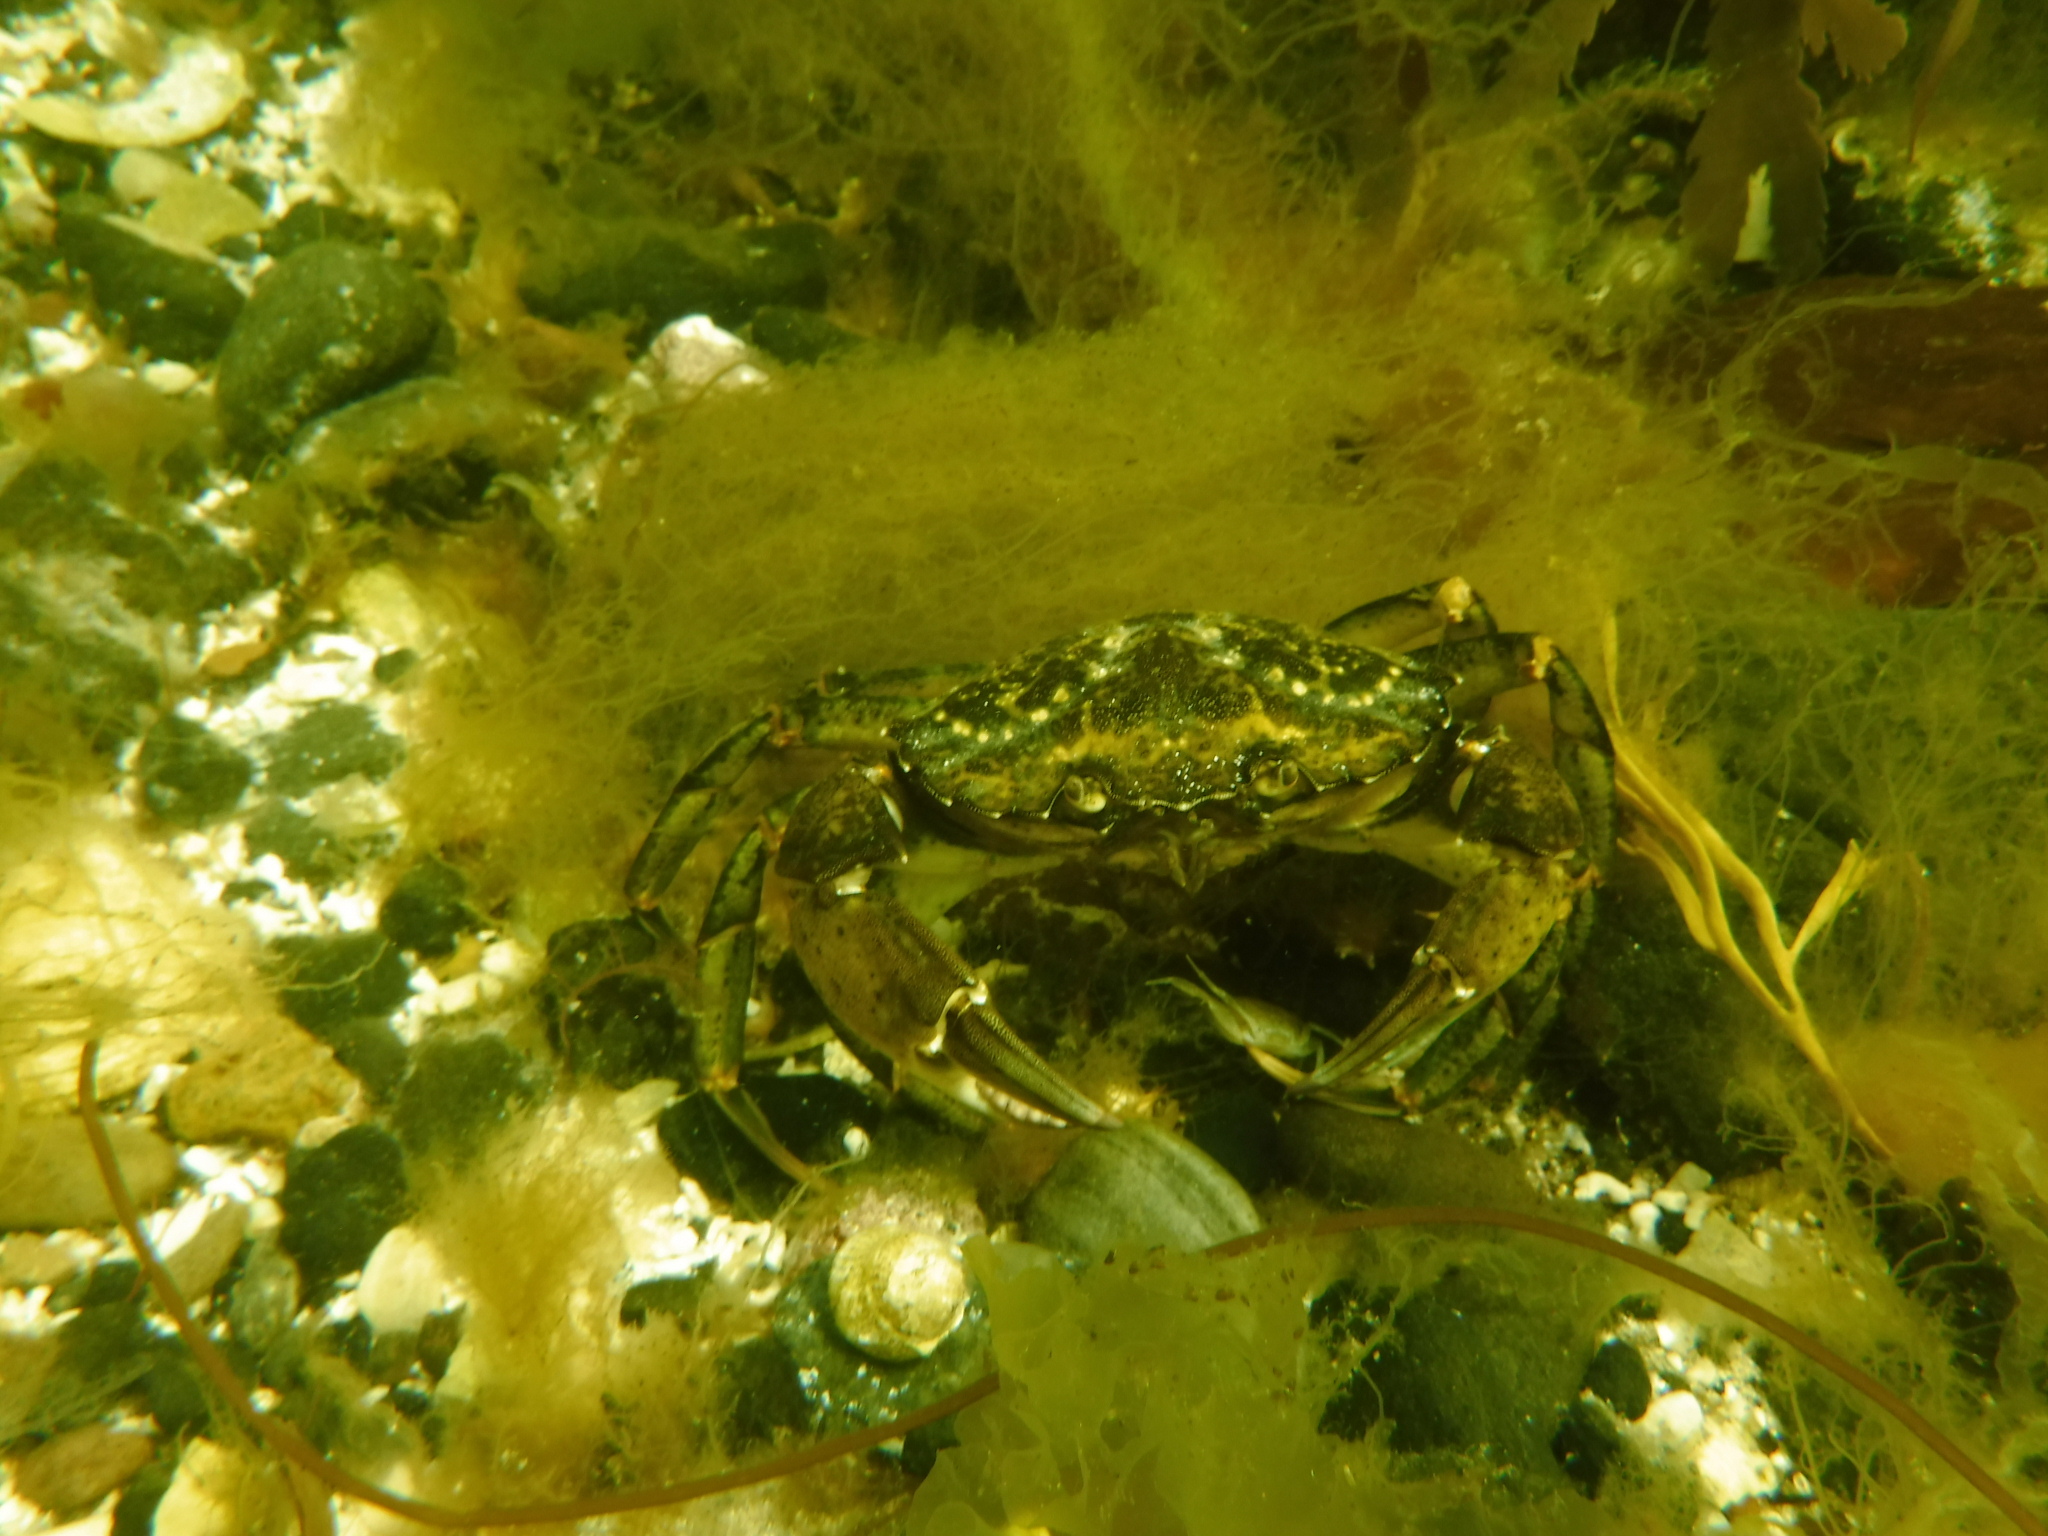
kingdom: Animalia
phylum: Arthropoda
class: Malacostraca
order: Decapoda
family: Carcinidae
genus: Carcinus
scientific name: Carcinus maenas
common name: European green crab
